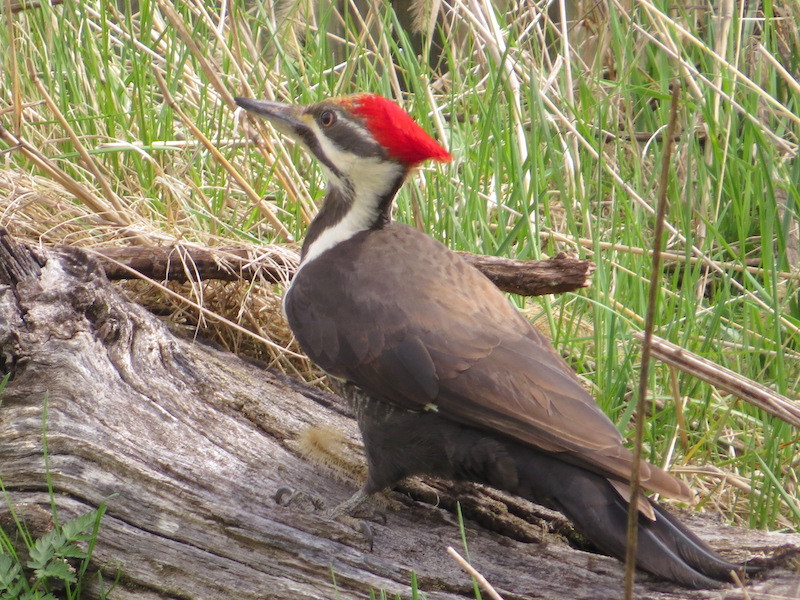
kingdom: Animalia
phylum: Chordata
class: Aves
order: Piciformes
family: Picidae
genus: Dryocopus
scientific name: Dryocopus pileatus
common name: Pileated woodpecker
